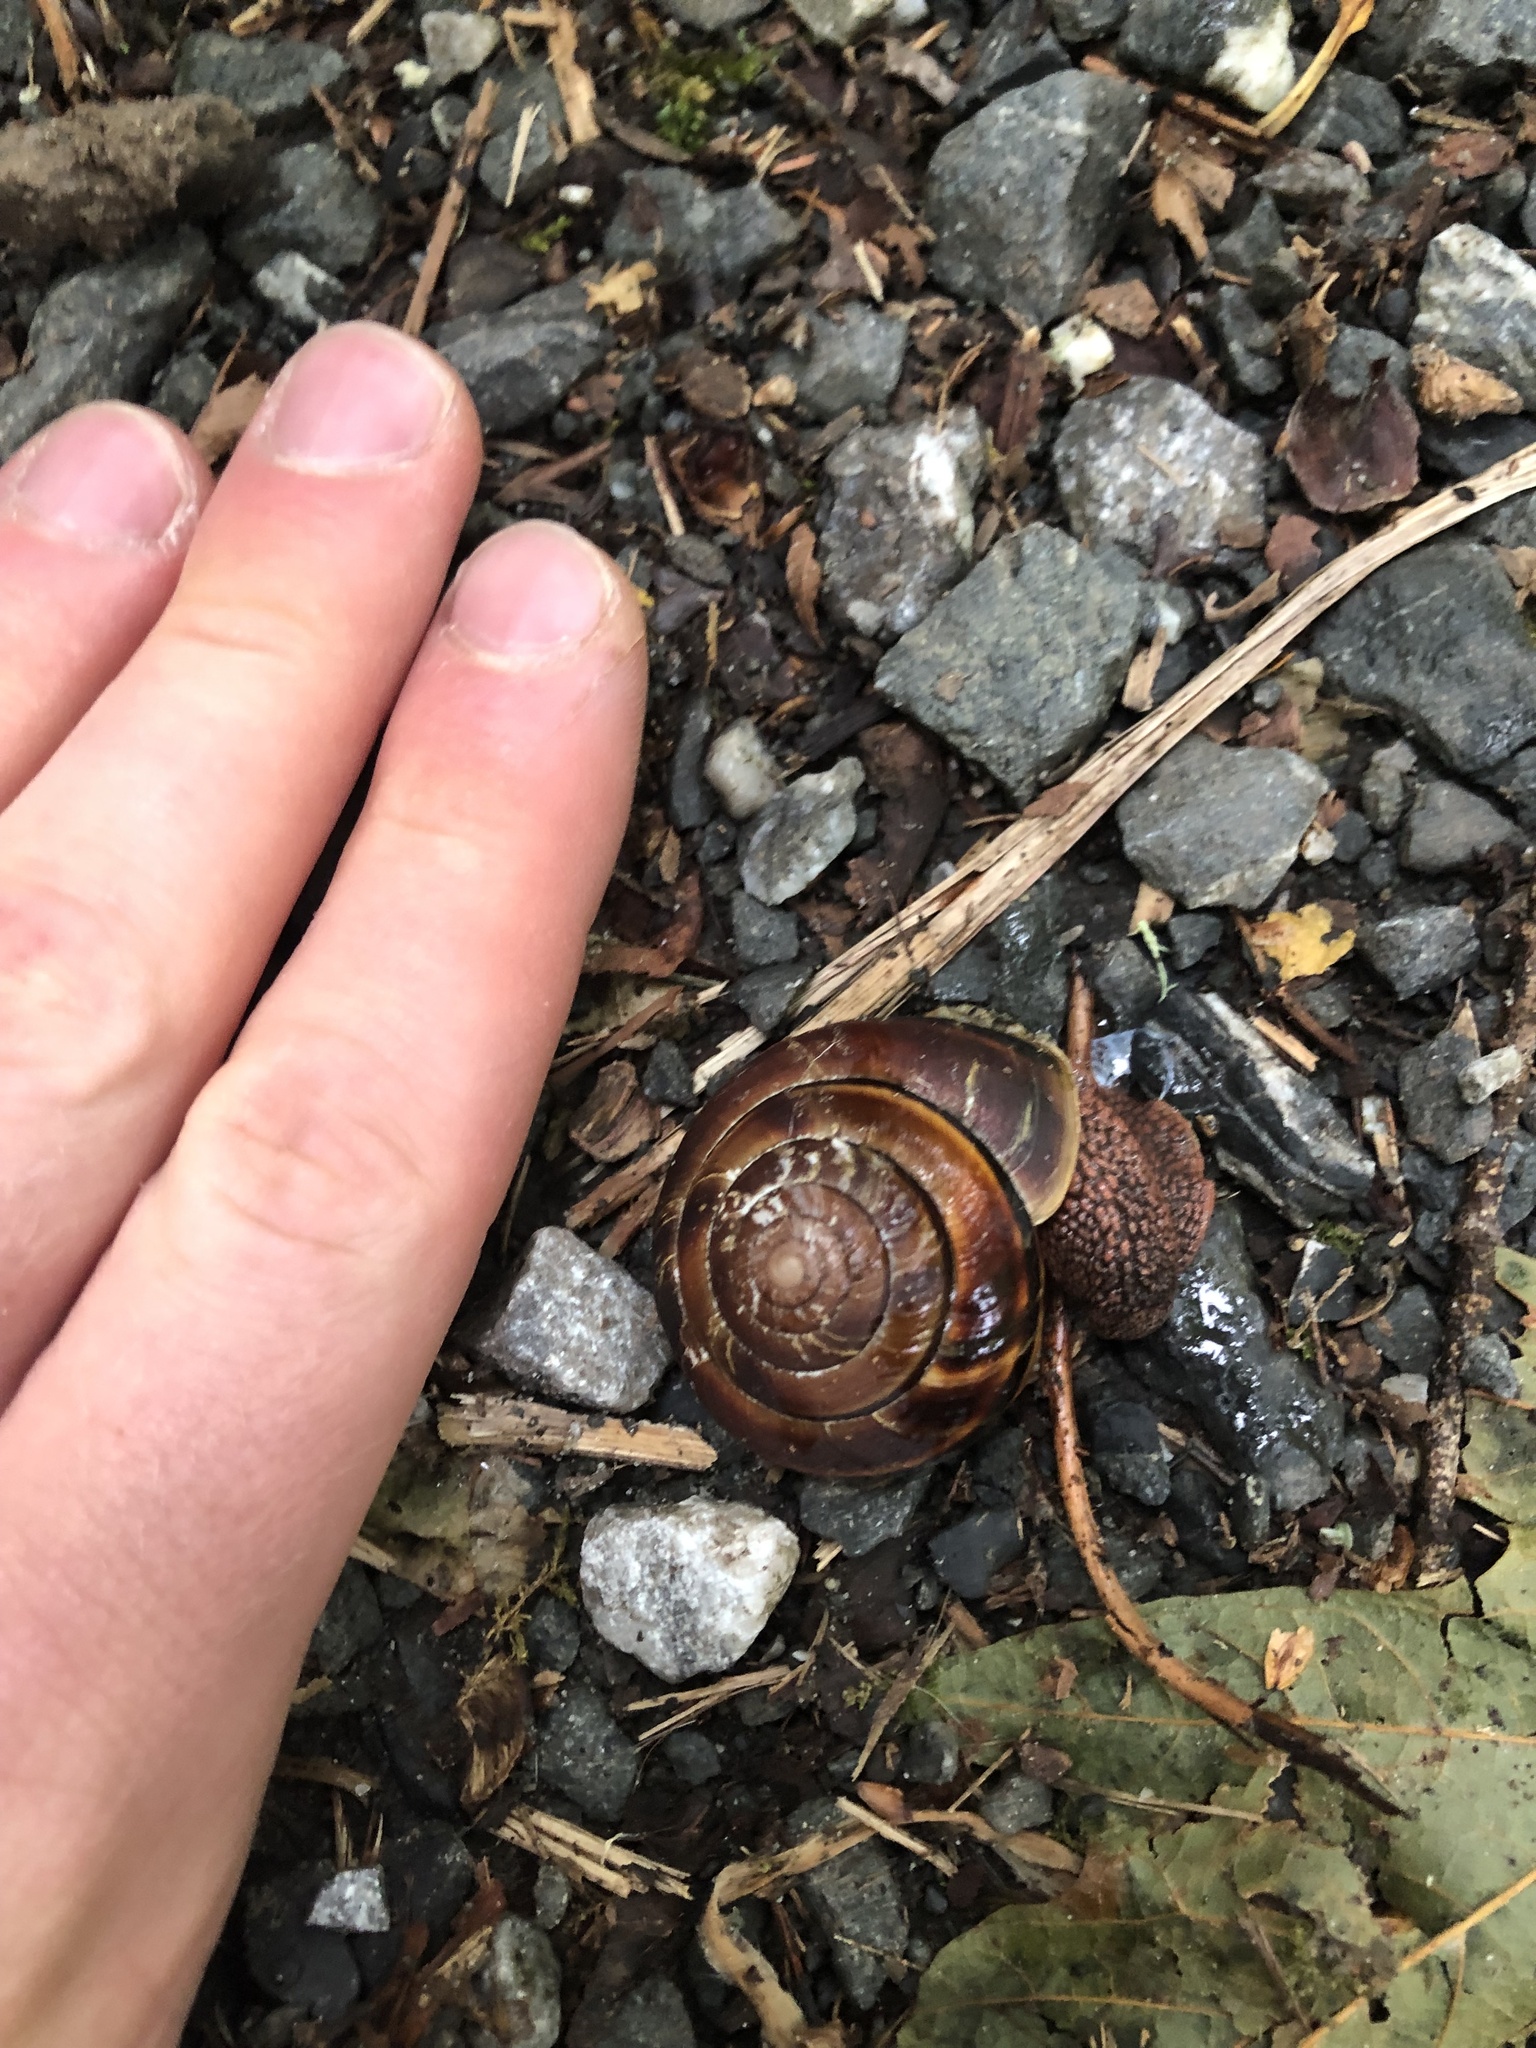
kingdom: Animalia
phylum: Mollusca
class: Gastropoda
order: Stylommatophora
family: Xanthonychidae
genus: Monadenia
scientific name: Monadenia fidelis
